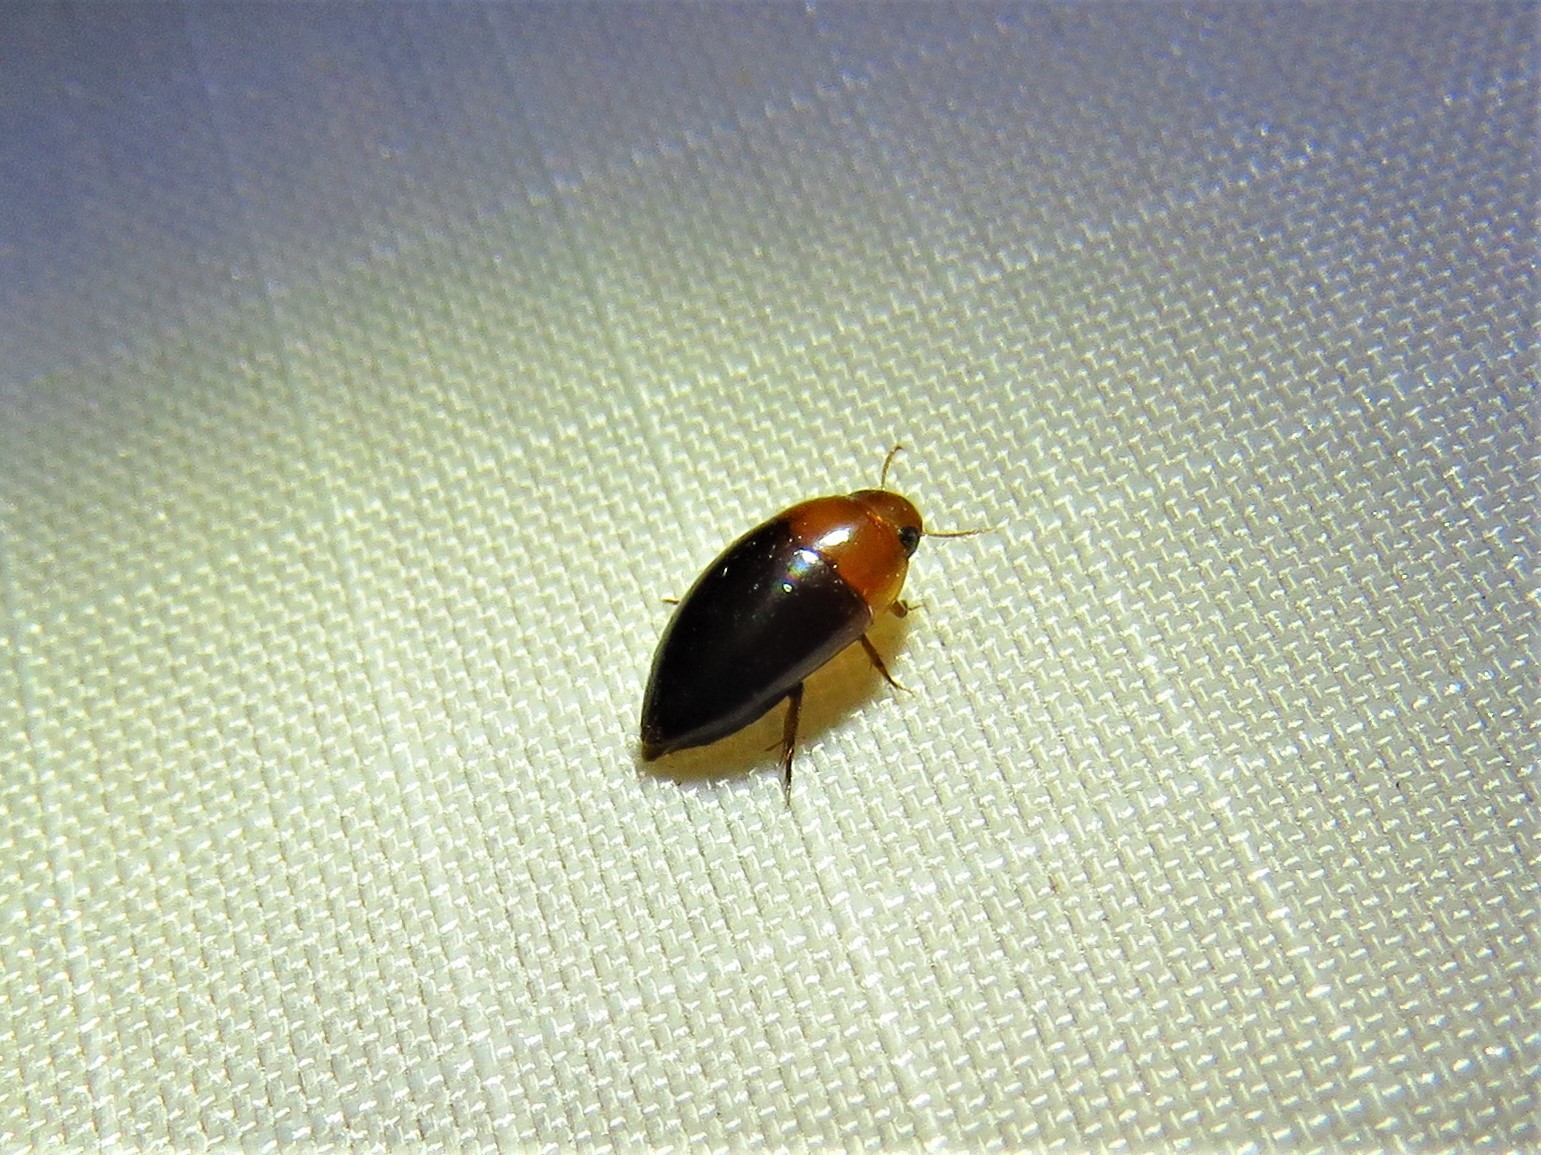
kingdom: Animalia
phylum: Arthropoda
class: Insecta
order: Coleoptera
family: Noteridae
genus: Hydrocanthus
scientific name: Hydrocanthus atripennis
